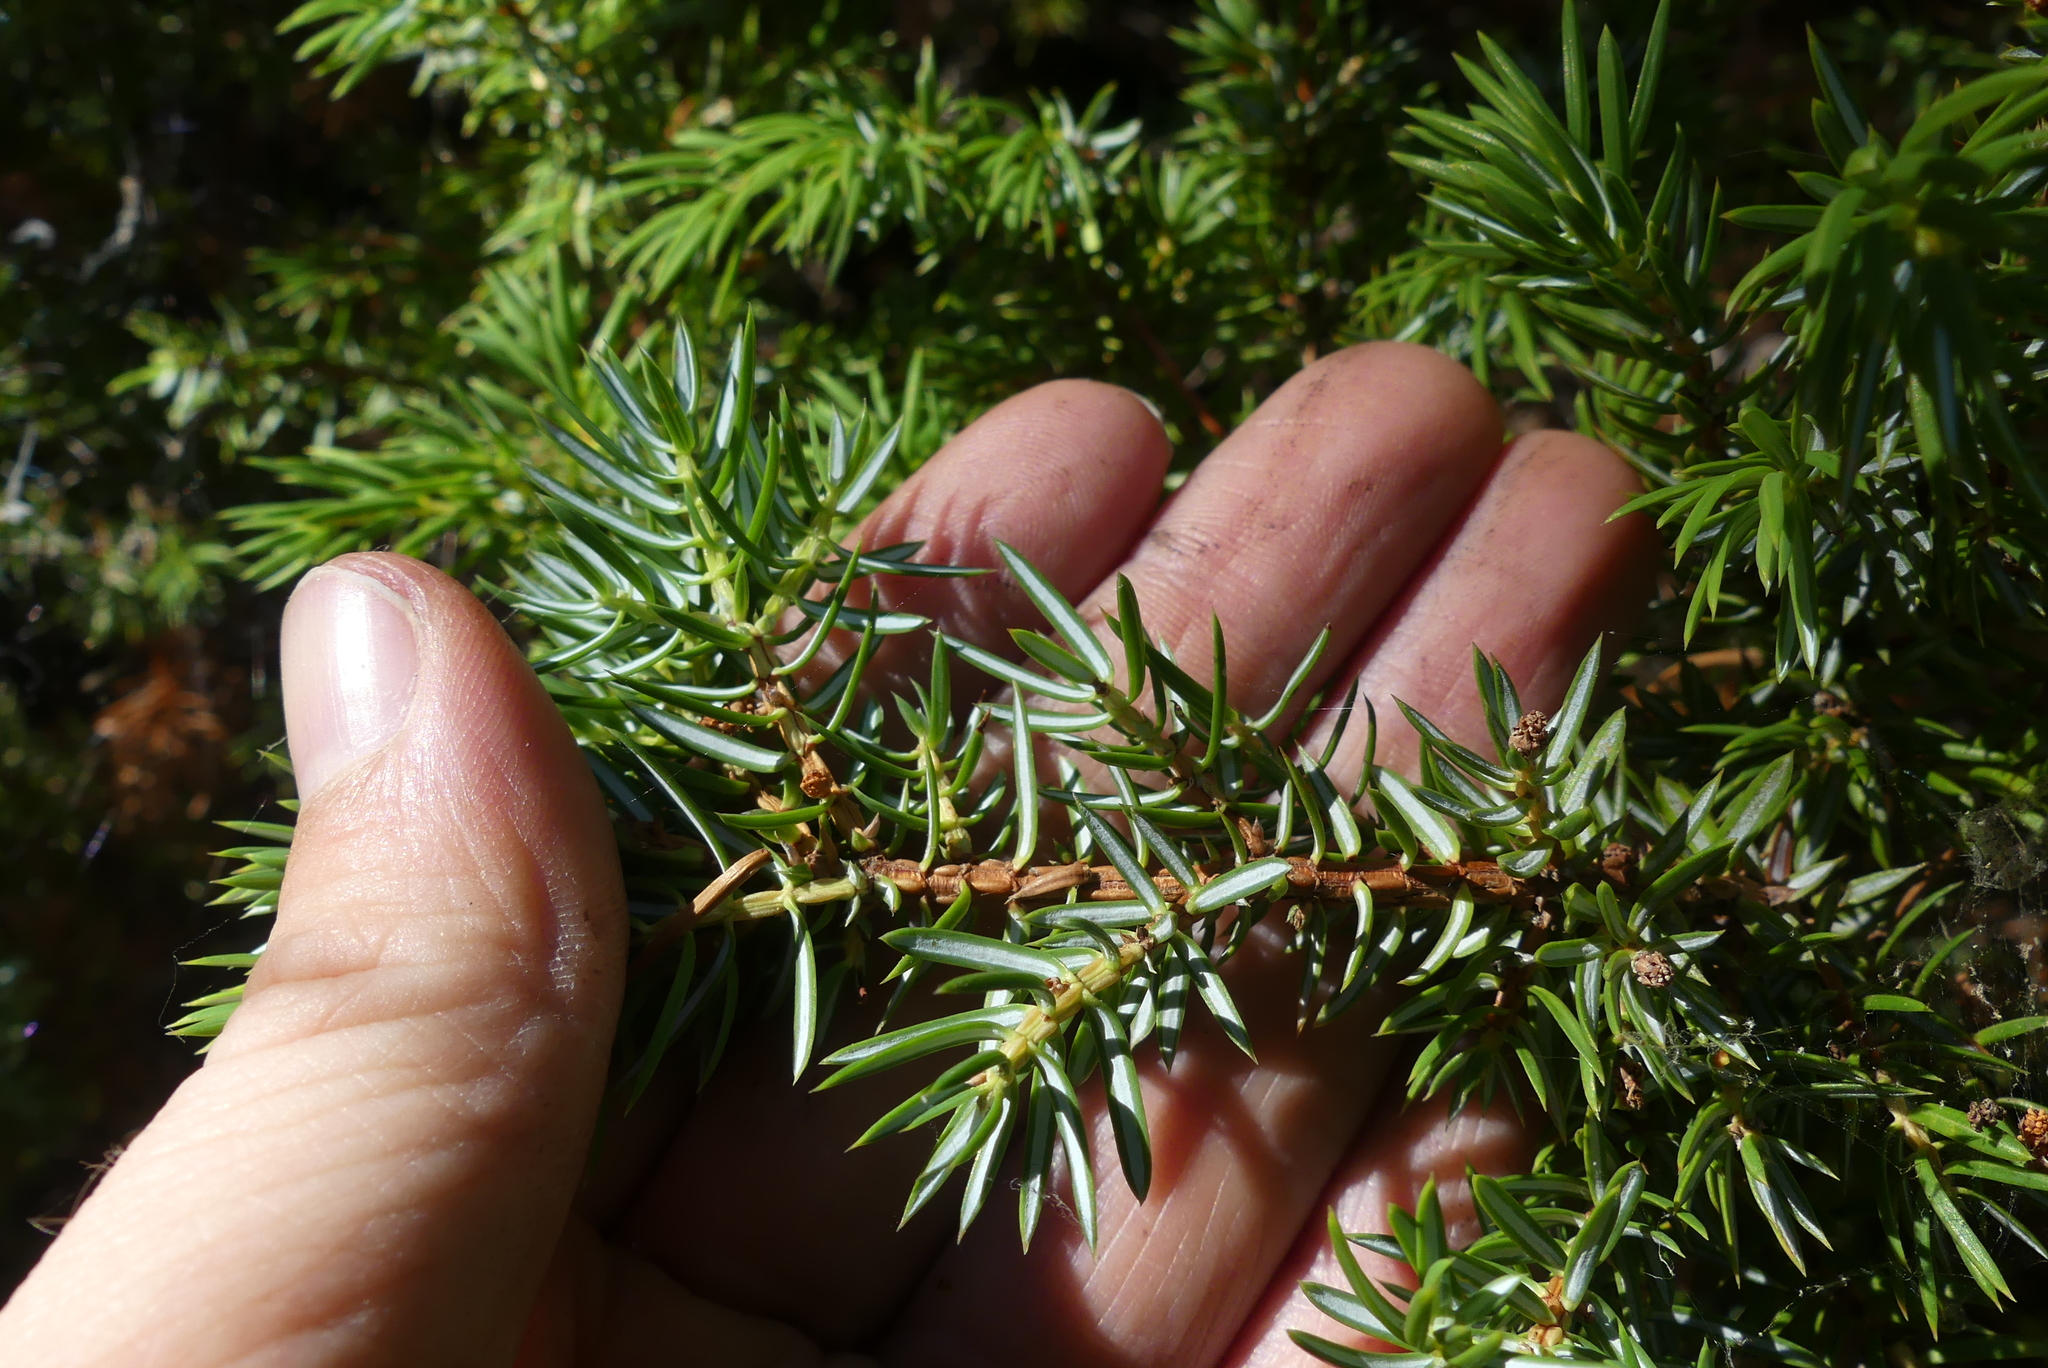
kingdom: Plantae
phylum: Tracheophyta
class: Pinopsida
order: Pinales
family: Cupressaceae
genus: Juniperus
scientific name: Juniperus communis
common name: Common juniper
